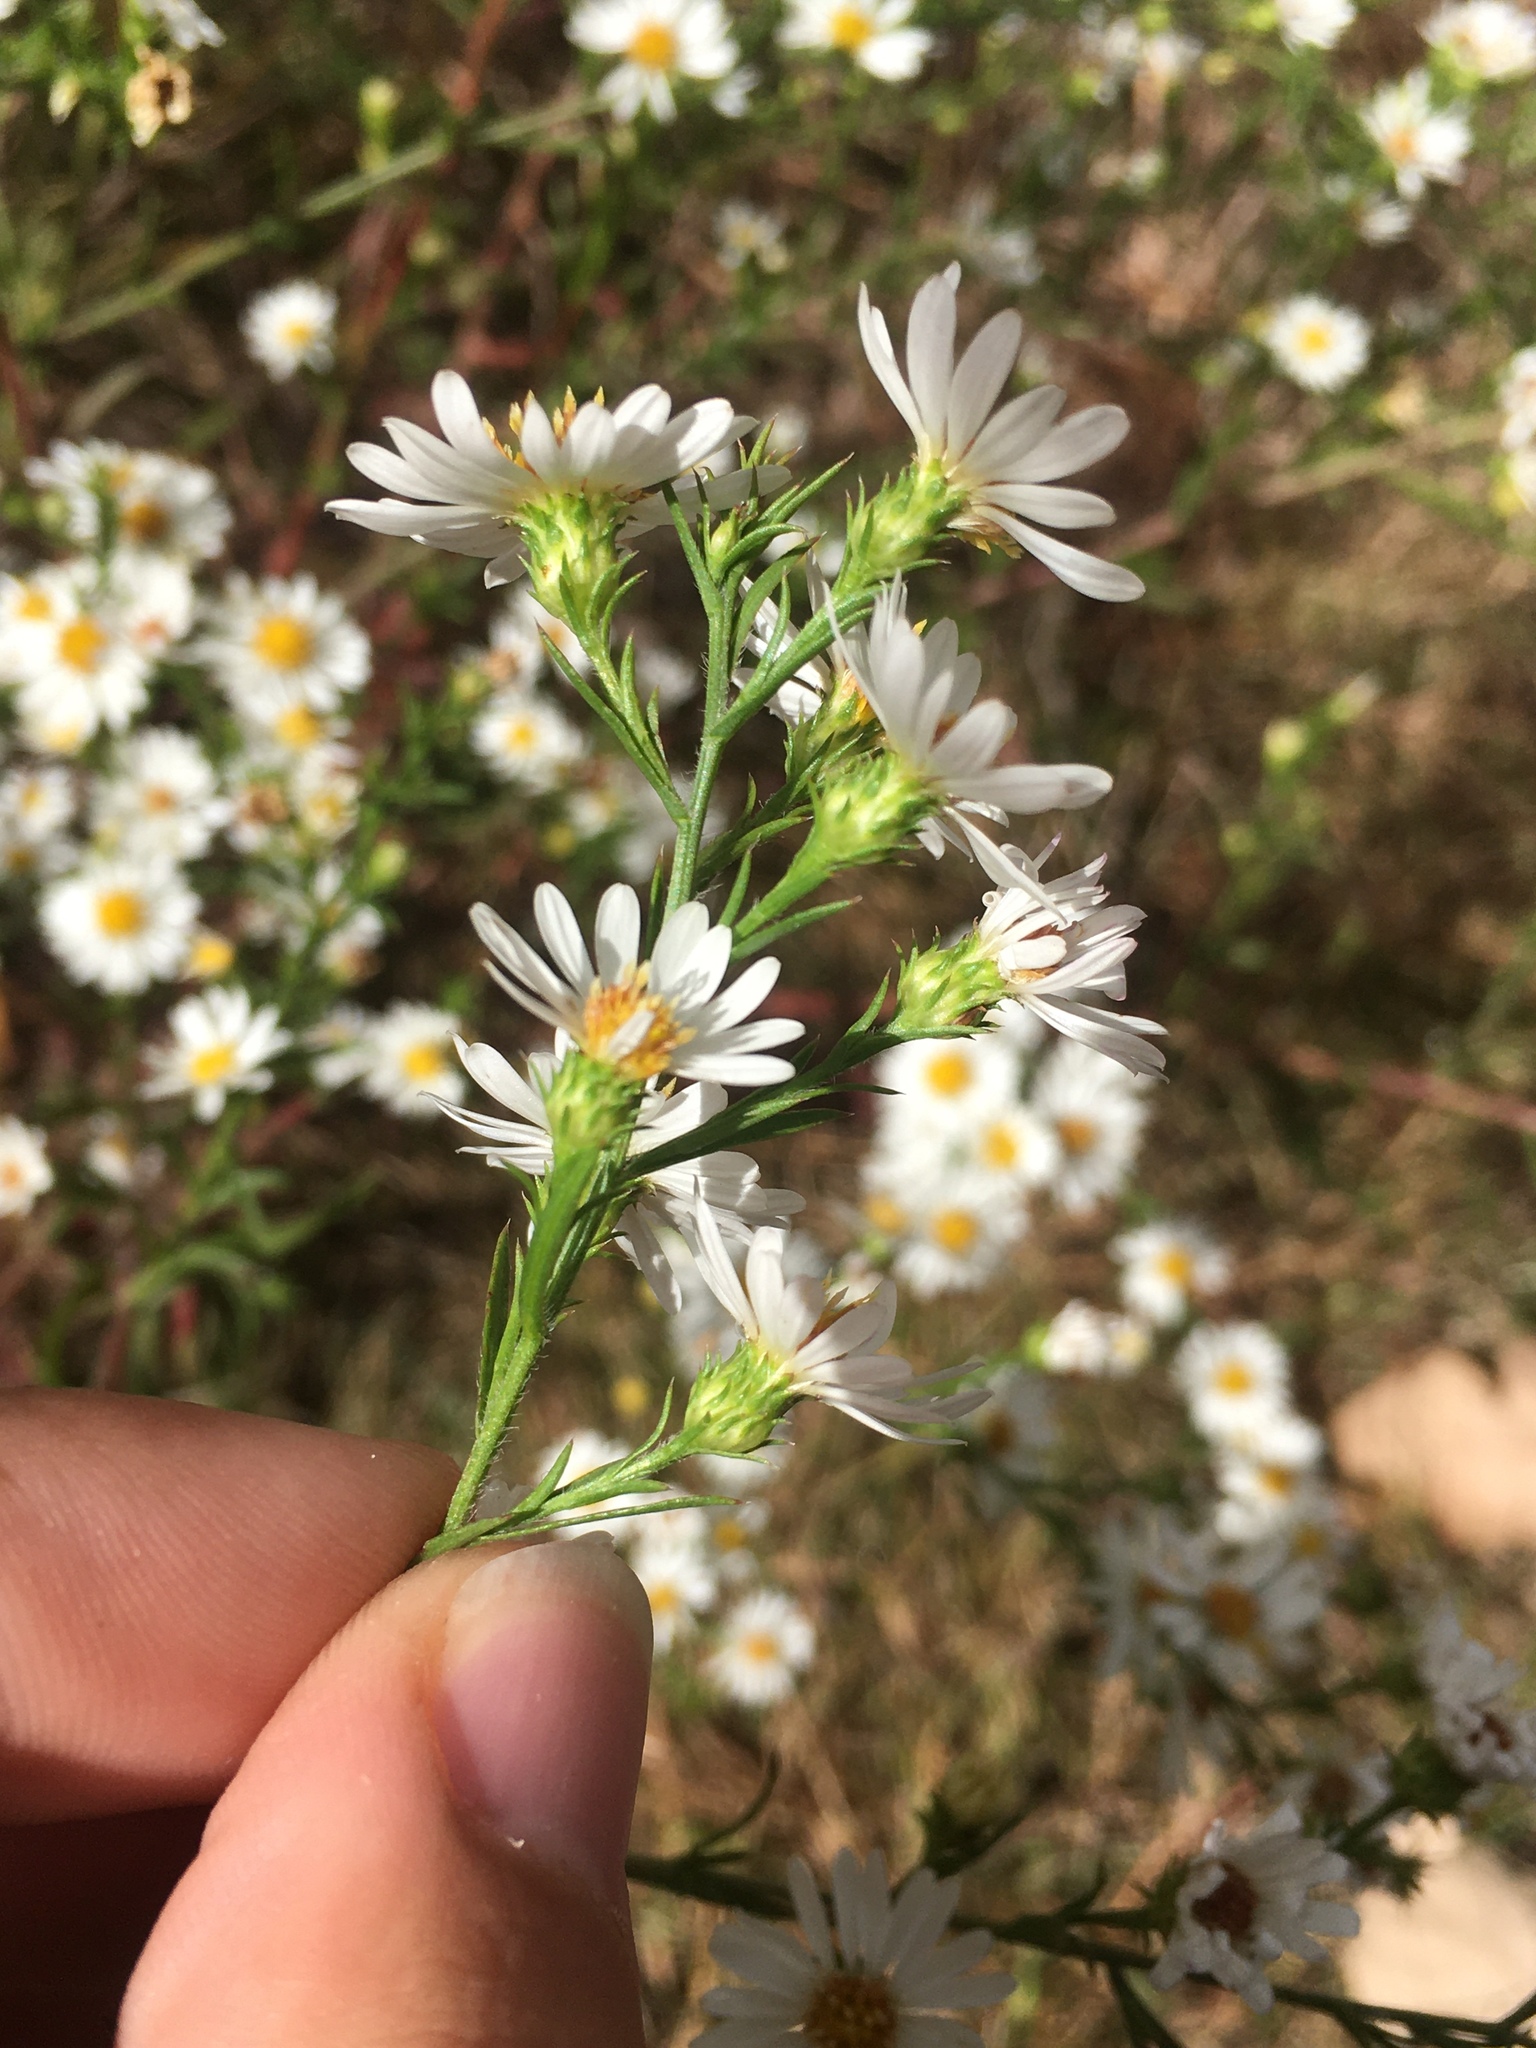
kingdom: Plantae
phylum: Tracheophyta
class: Magnoliopsida
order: Asterales
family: Asteraceae
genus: Symphyotrichum
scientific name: Symphyotrichum pilosum
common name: Awl aster
